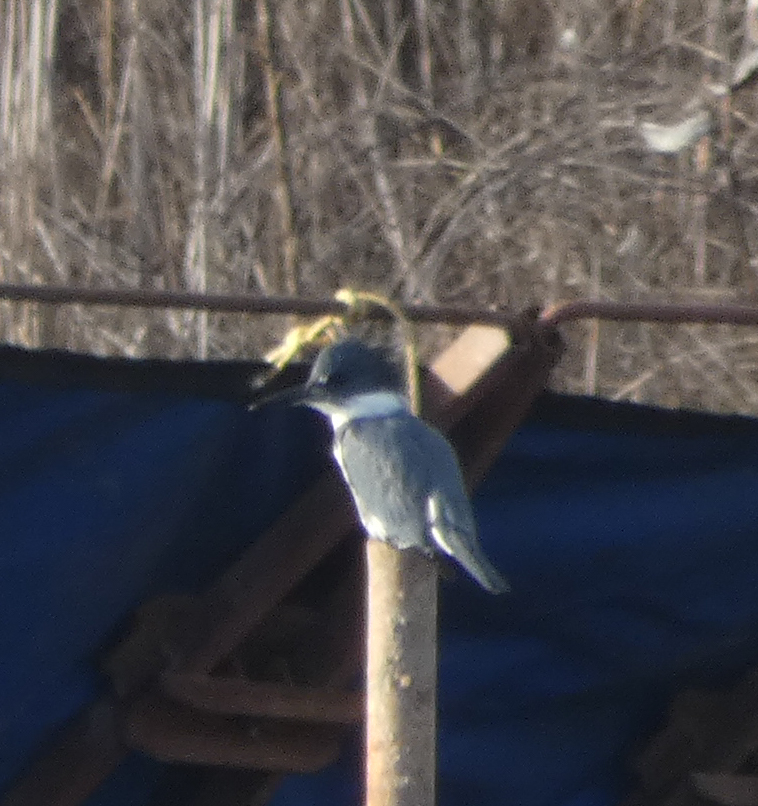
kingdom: Animalia
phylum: Chordata
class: Aves
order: Coraciiformes
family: Alcedinidae
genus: Megaceryle
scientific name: Megaceryle alcyon
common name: Belted kingfisher
